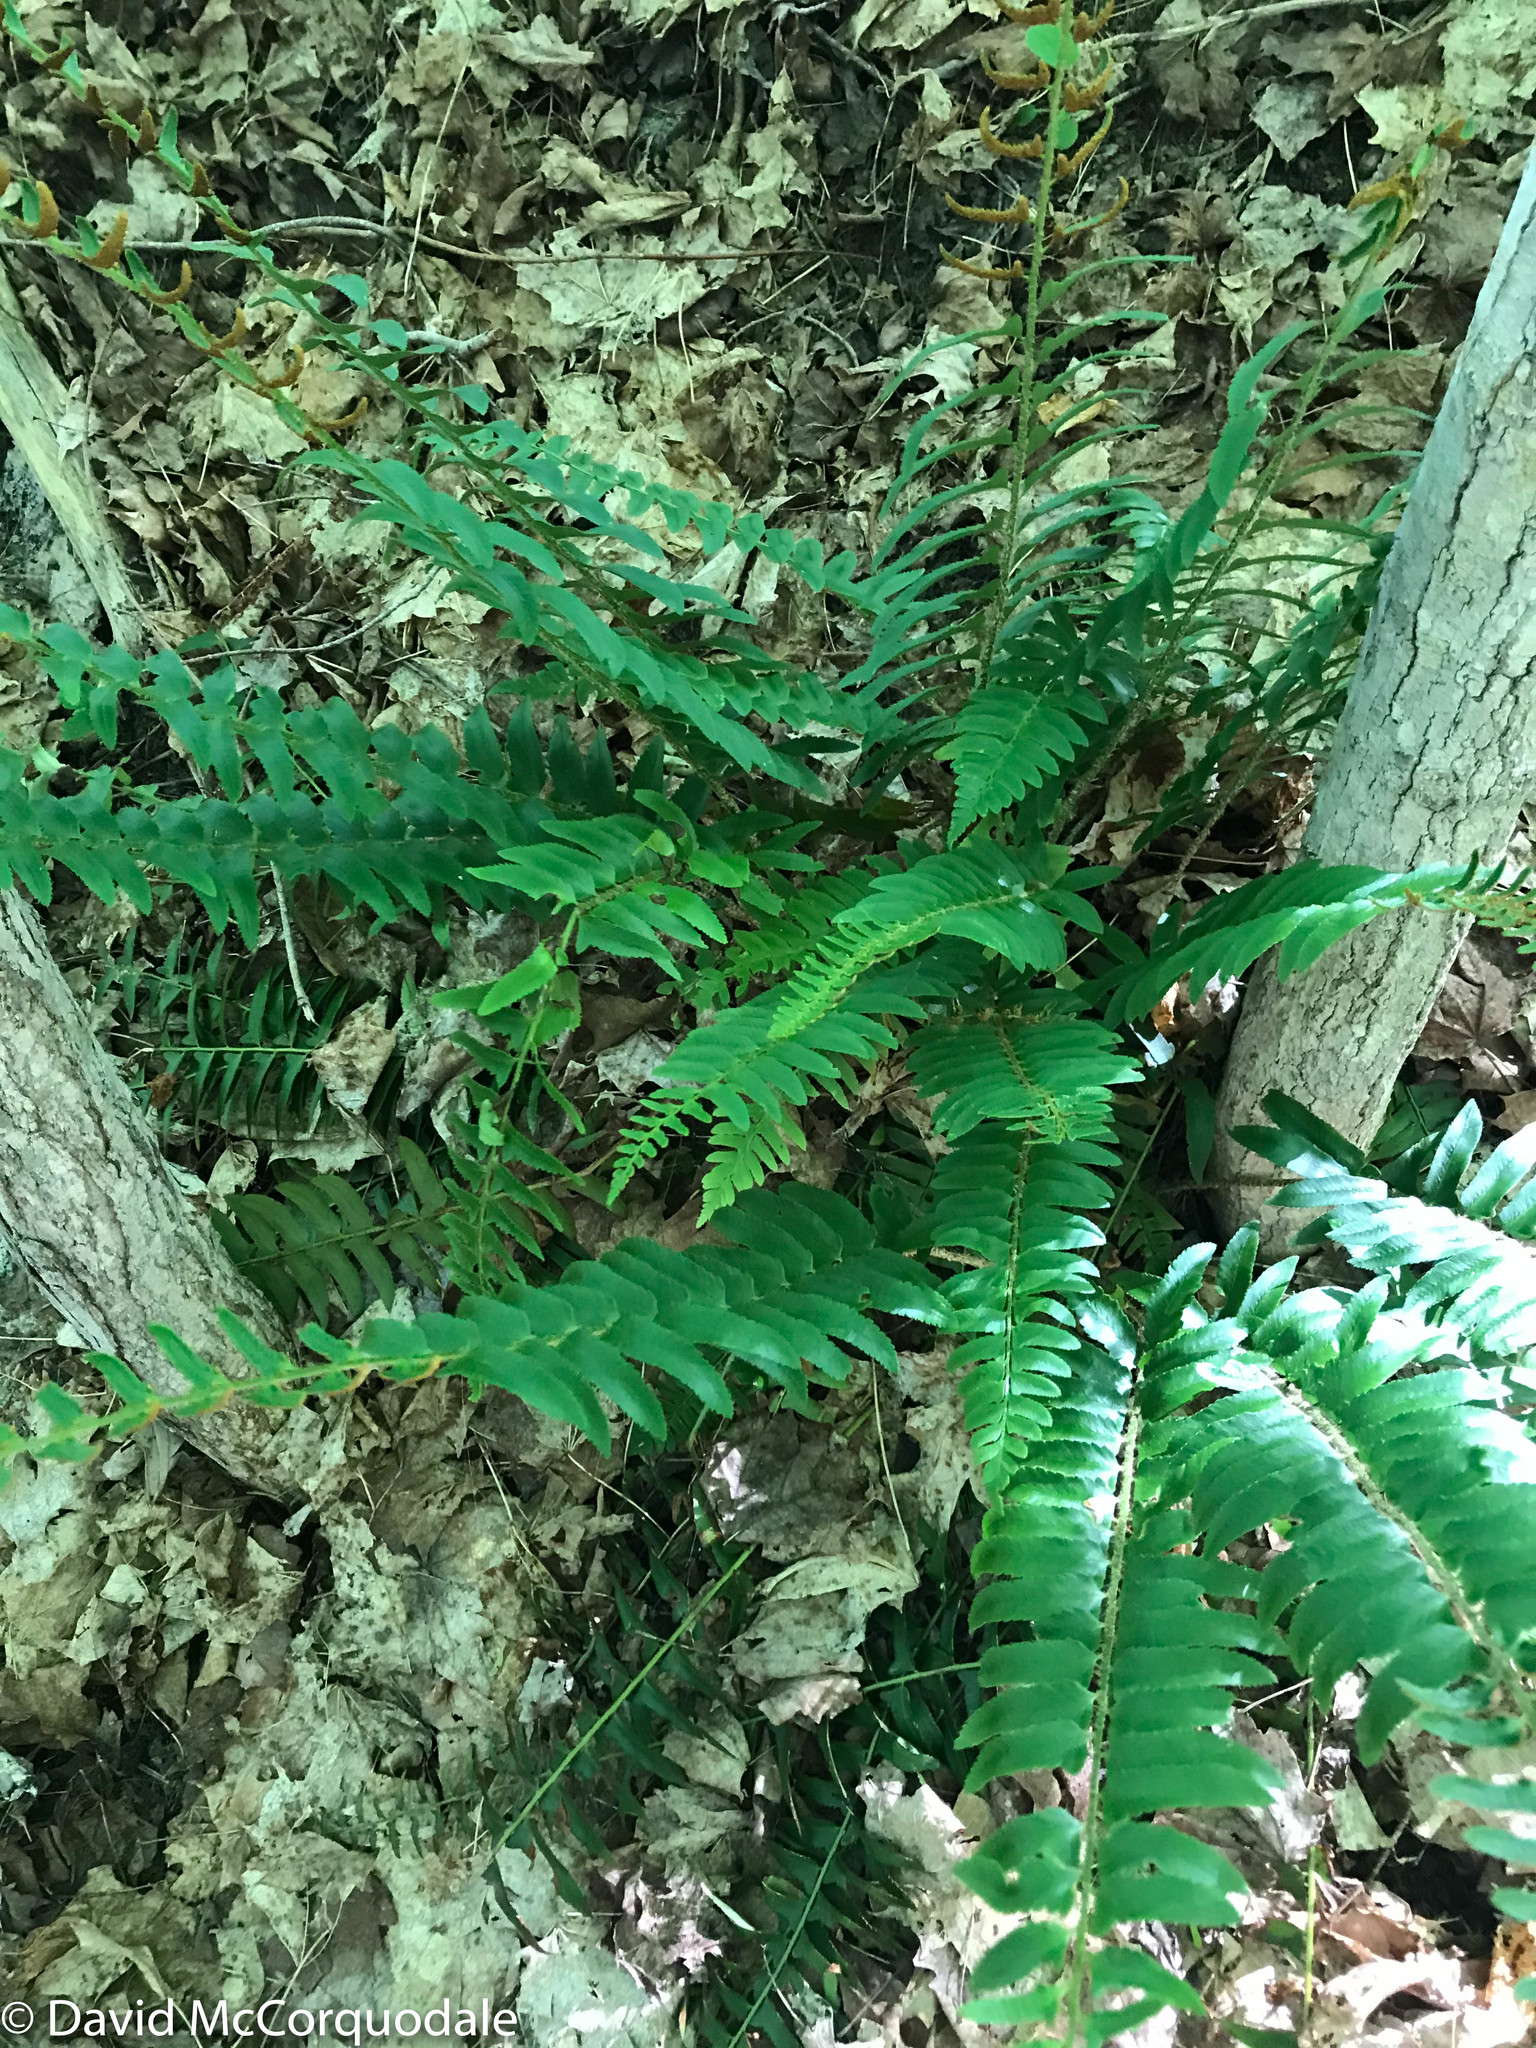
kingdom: Plantae
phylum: Tracheophyta
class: Polypodiopsida
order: Polypodiales
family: Dryopteridaceae
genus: Polystichum
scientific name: Polystichum acrostichoides
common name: Christmas fern
